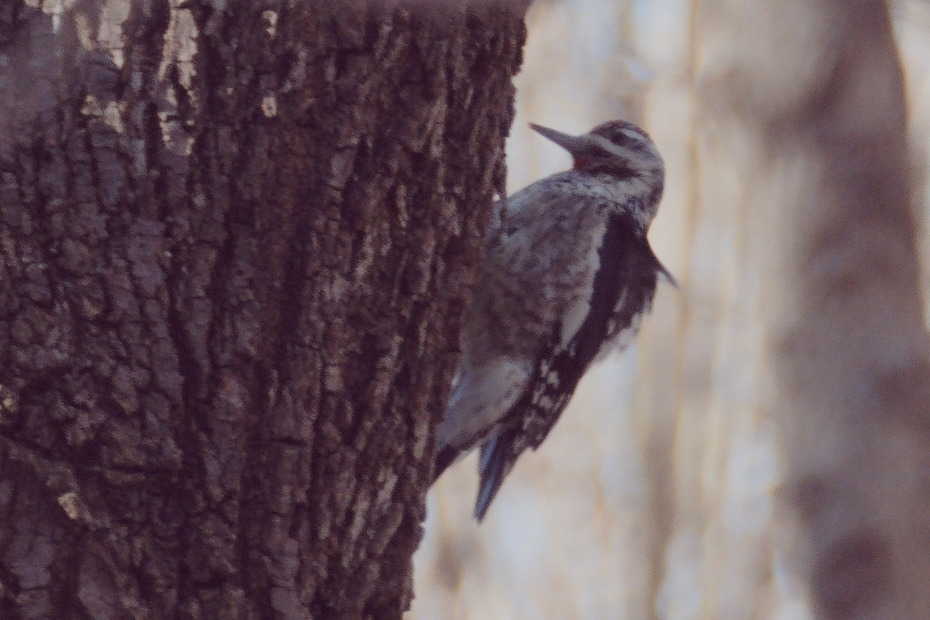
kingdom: Animalia
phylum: Chordata
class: Aves
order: Piciformes
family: Picidae
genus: Sphyrapicus
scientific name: Sphyrapicus varius
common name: Yellow-bellied sapsucker
